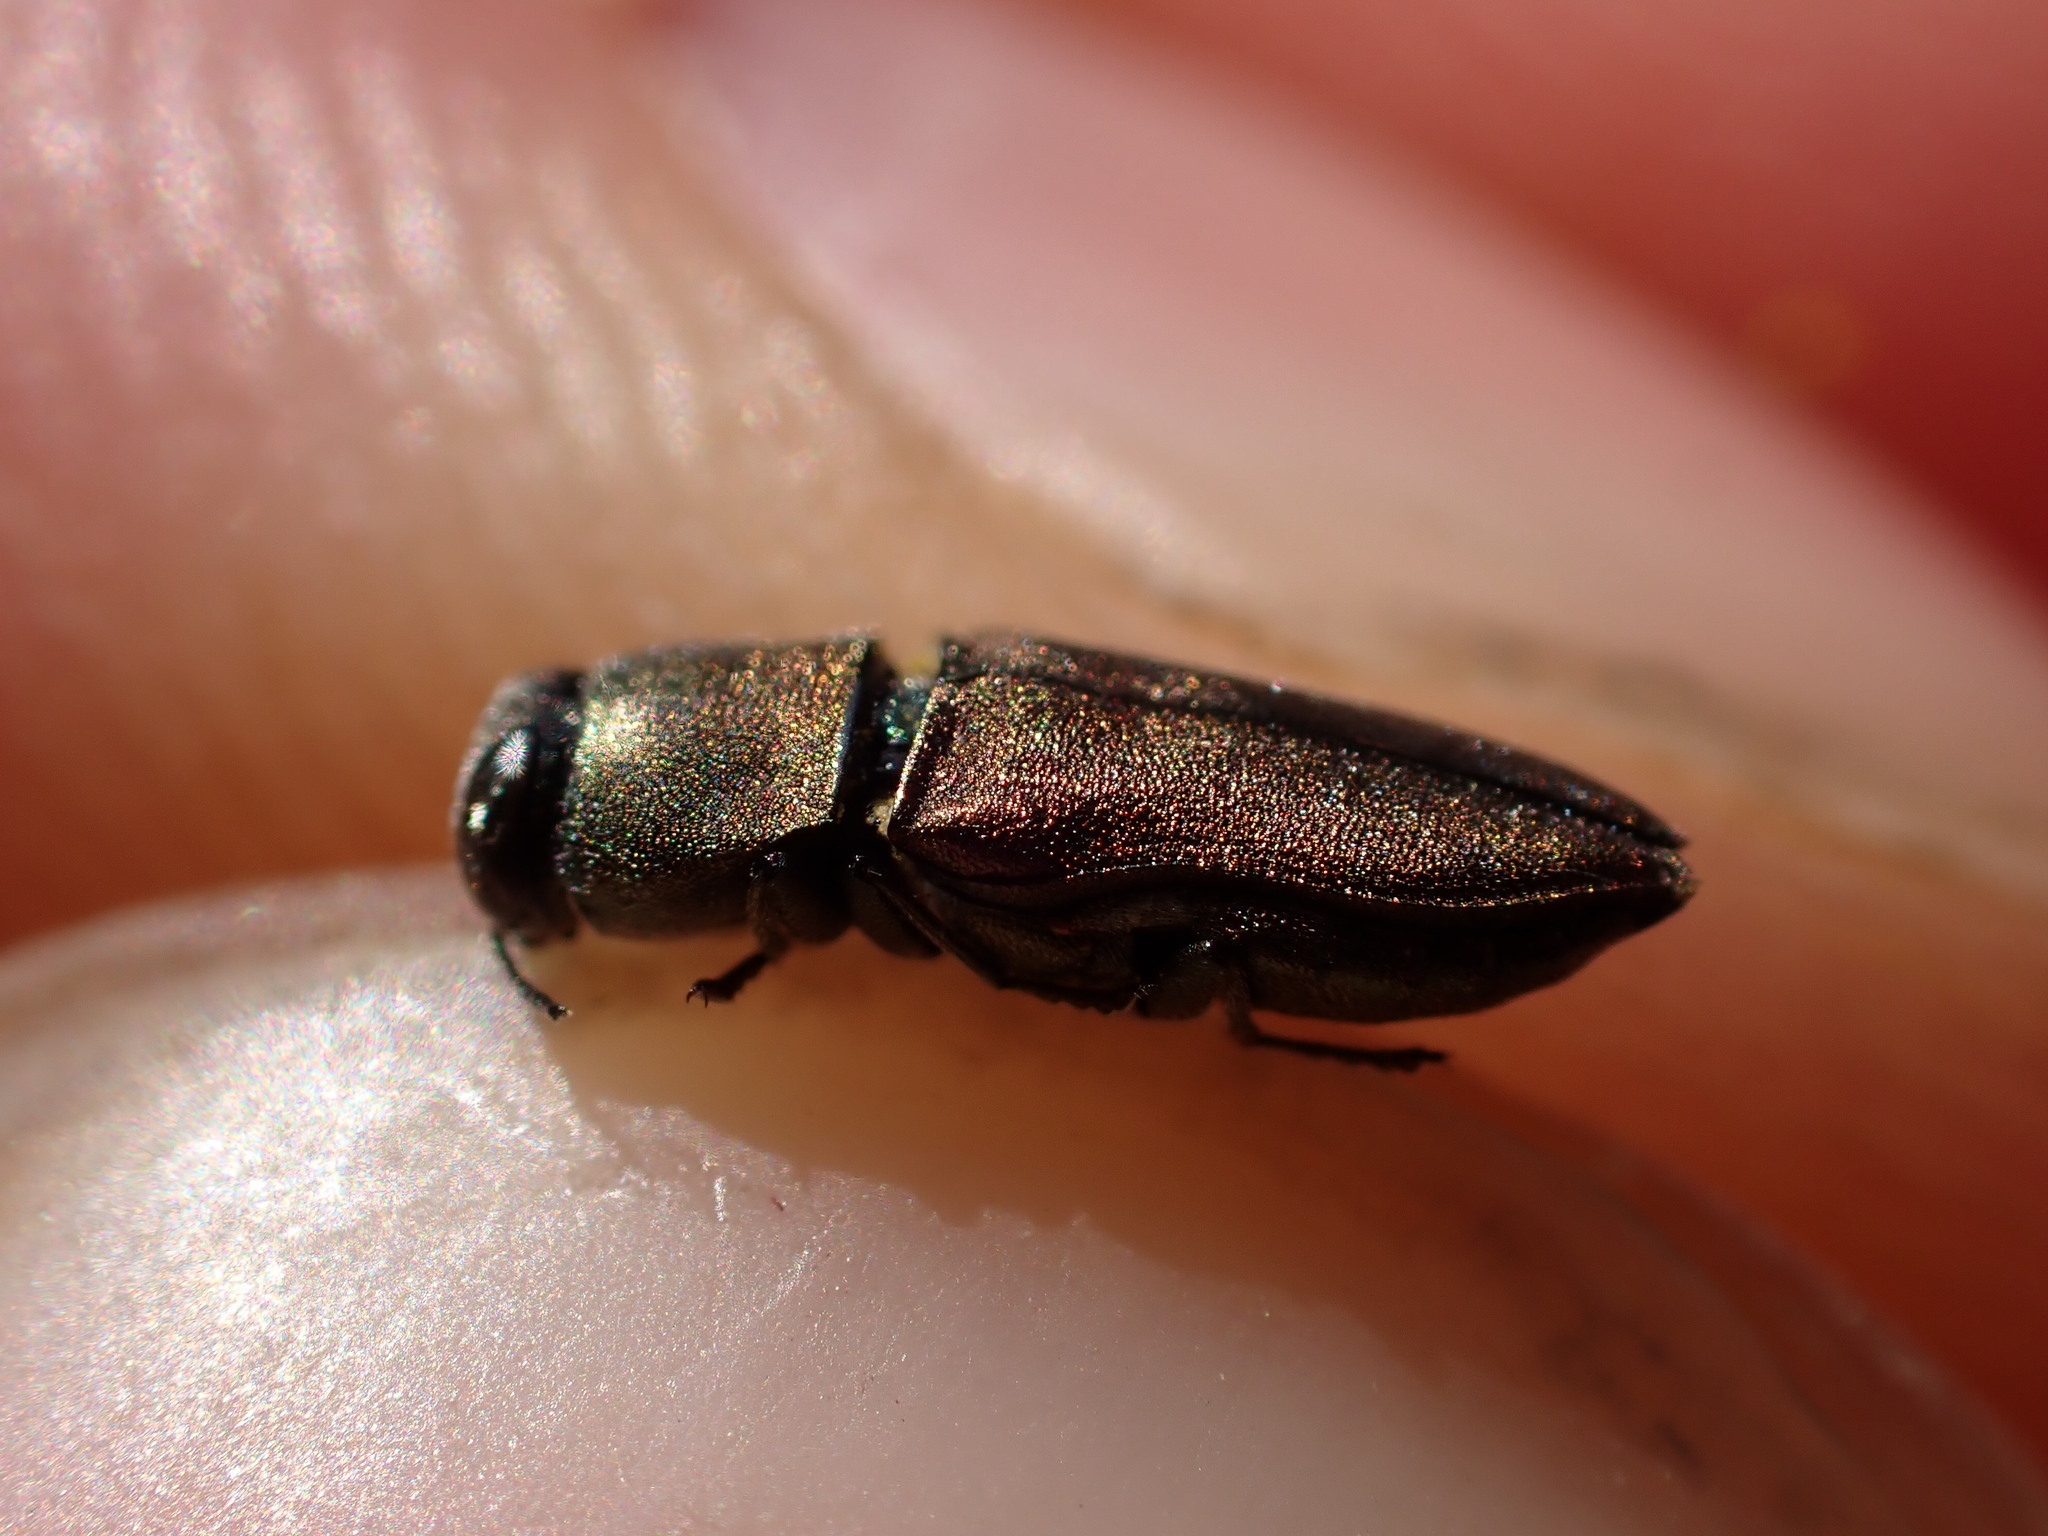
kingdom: Animalia
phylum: Arthropoda
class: Insecta
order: Coleoptera
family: Buprestidae
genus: Anthaxia
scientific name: Anthaxia umbellatarum
